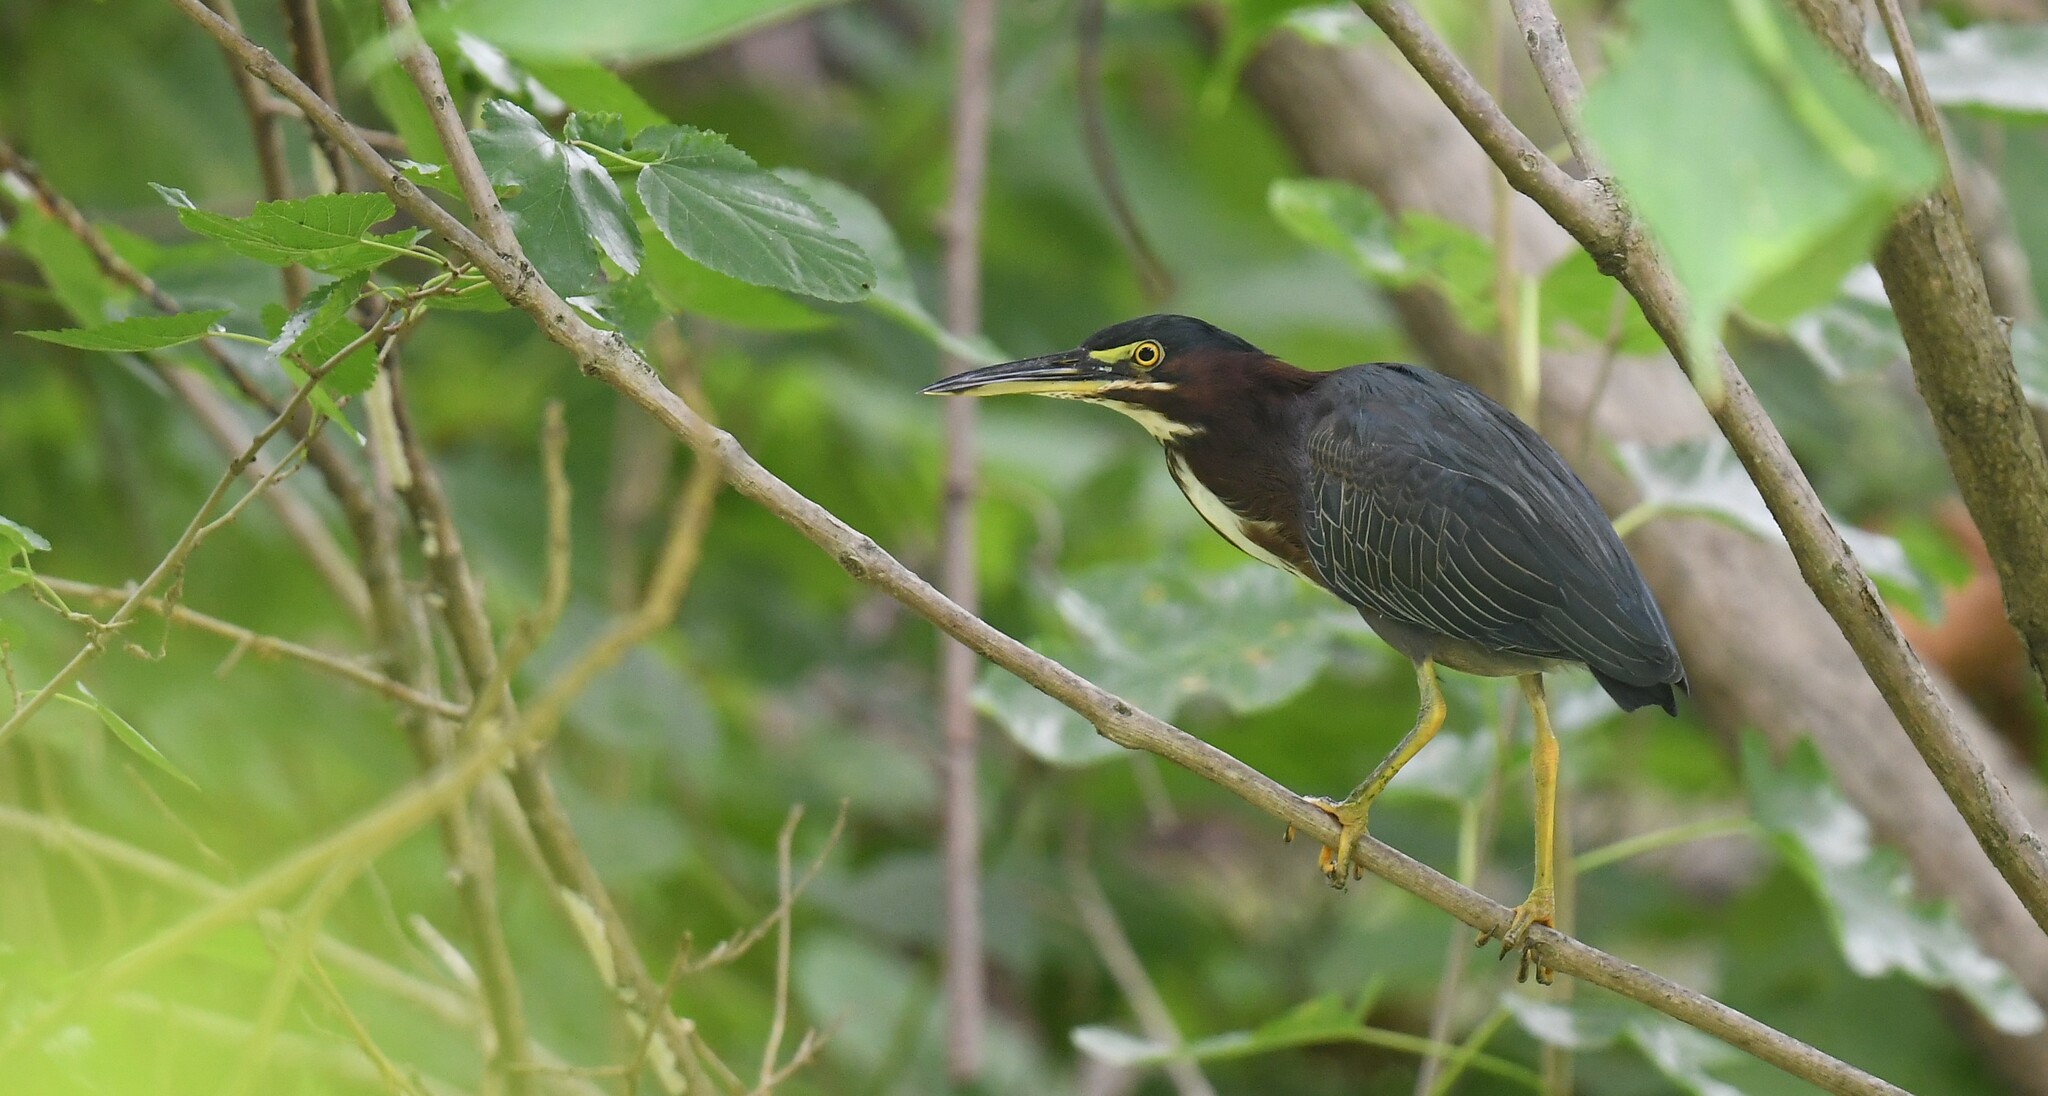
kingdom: Animalia
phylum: Chordata
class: Aves
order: Pelecaniformes
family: Ardeidae
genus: Butorides
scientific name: Butorides virescens
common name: Green heron
